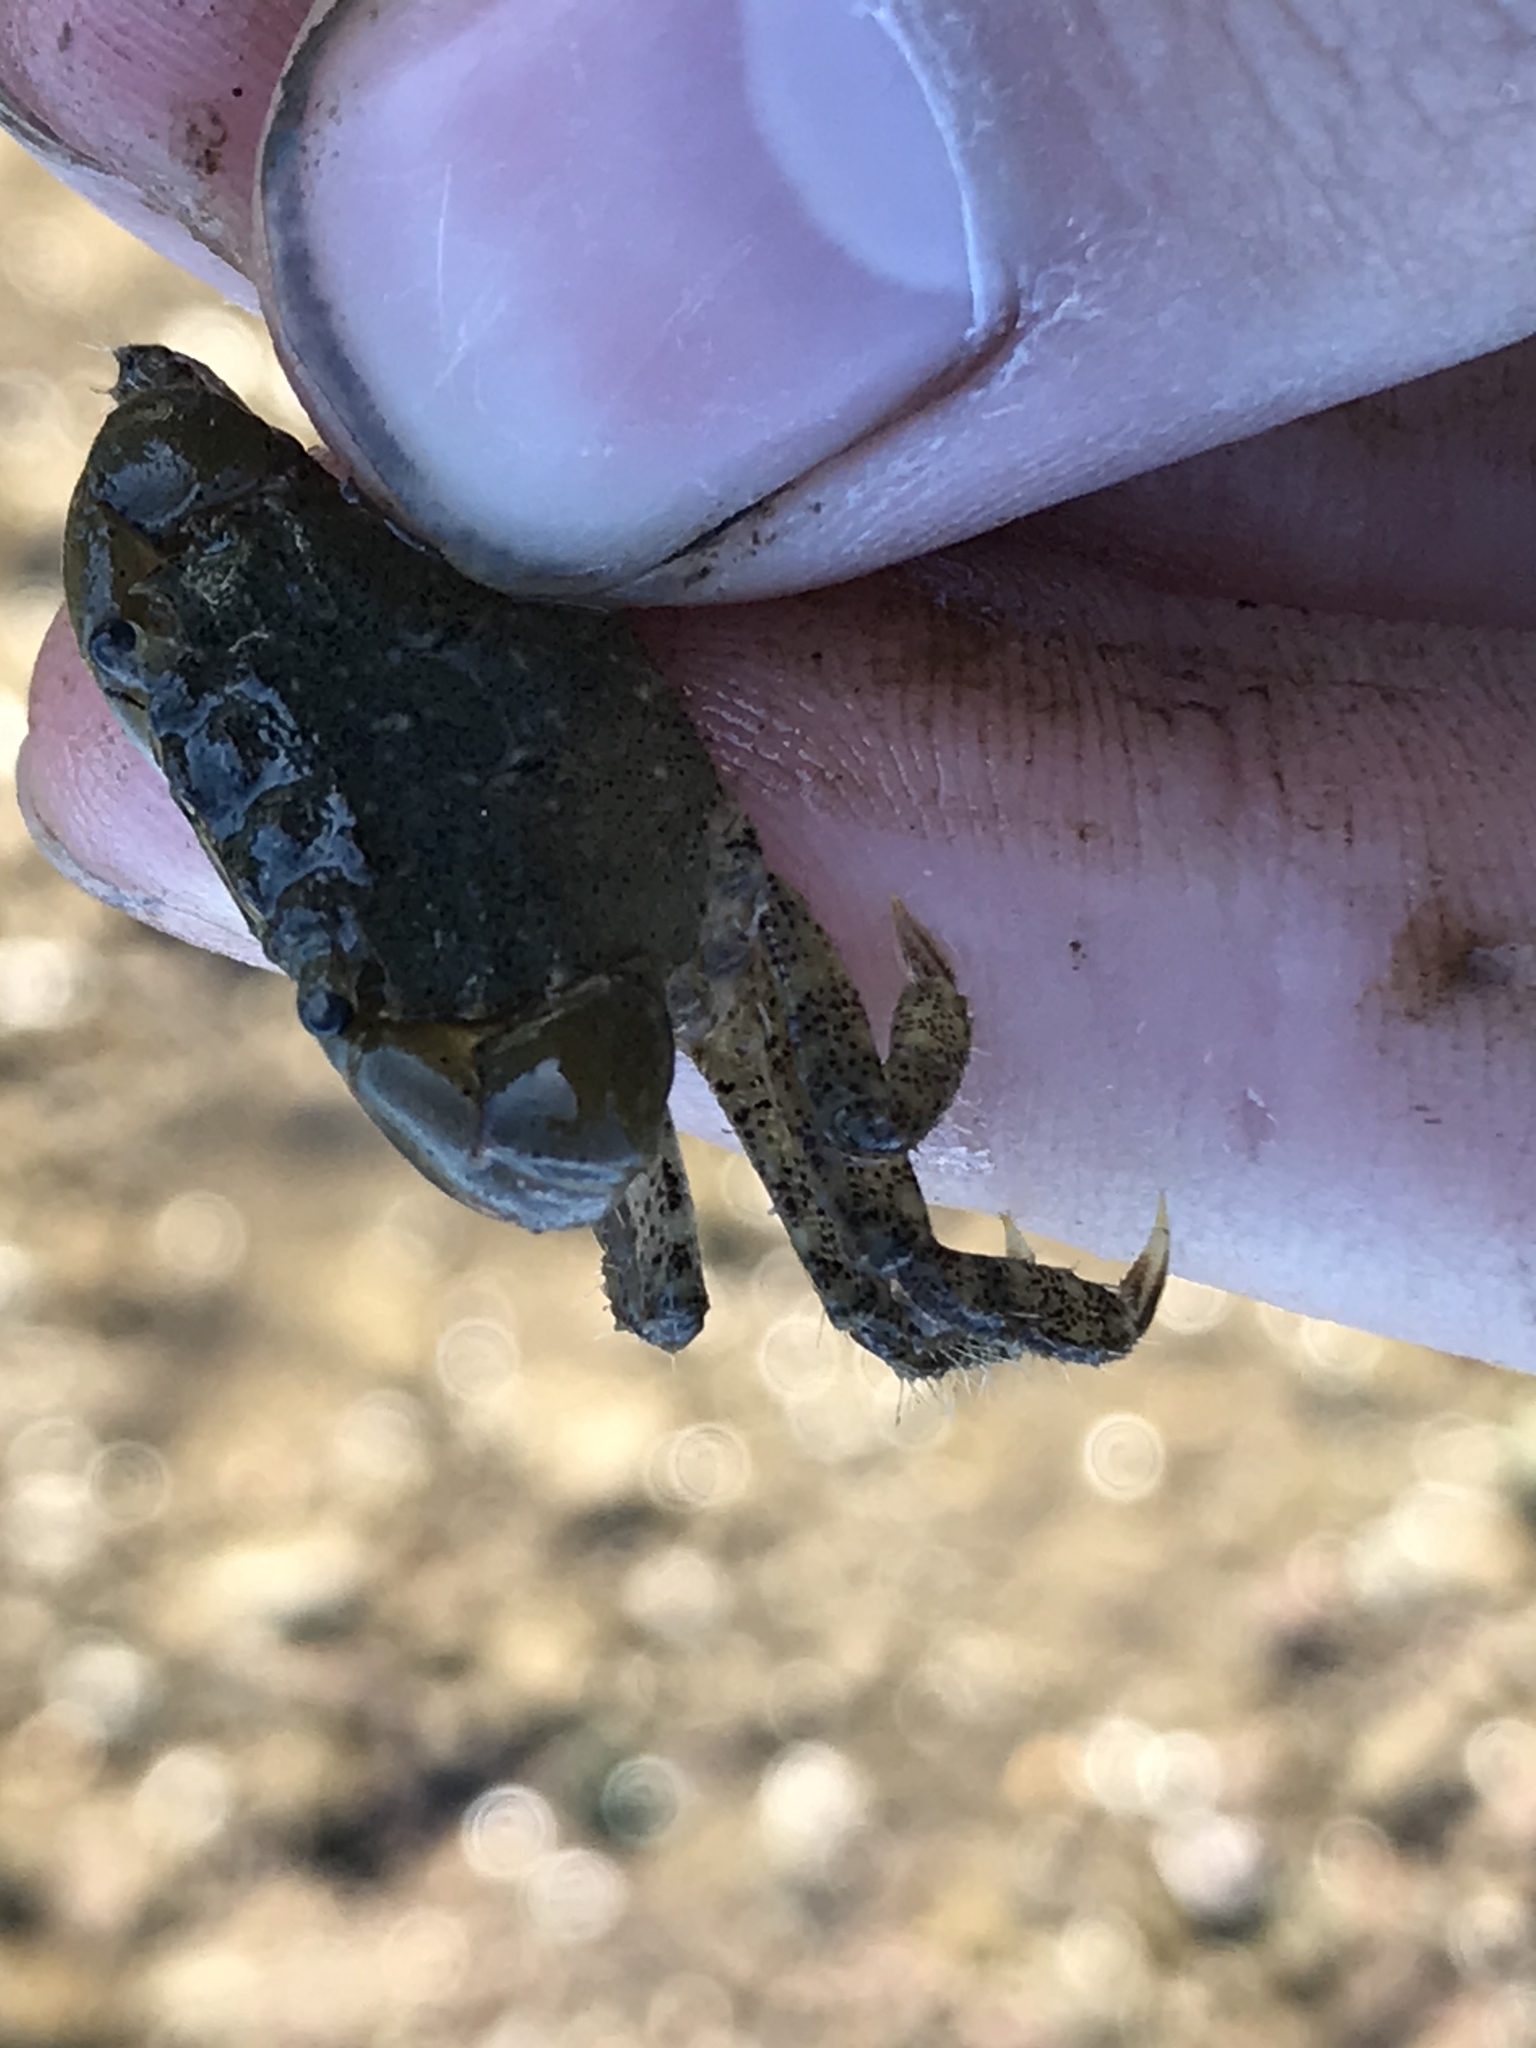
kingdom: Animalia
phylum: Arthropoda
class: Malacostraca
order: Decapoda
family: Varunidae
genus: Hemigrapsus
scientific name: Hemigrapsus oregonensis
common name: Yellow shore crab
